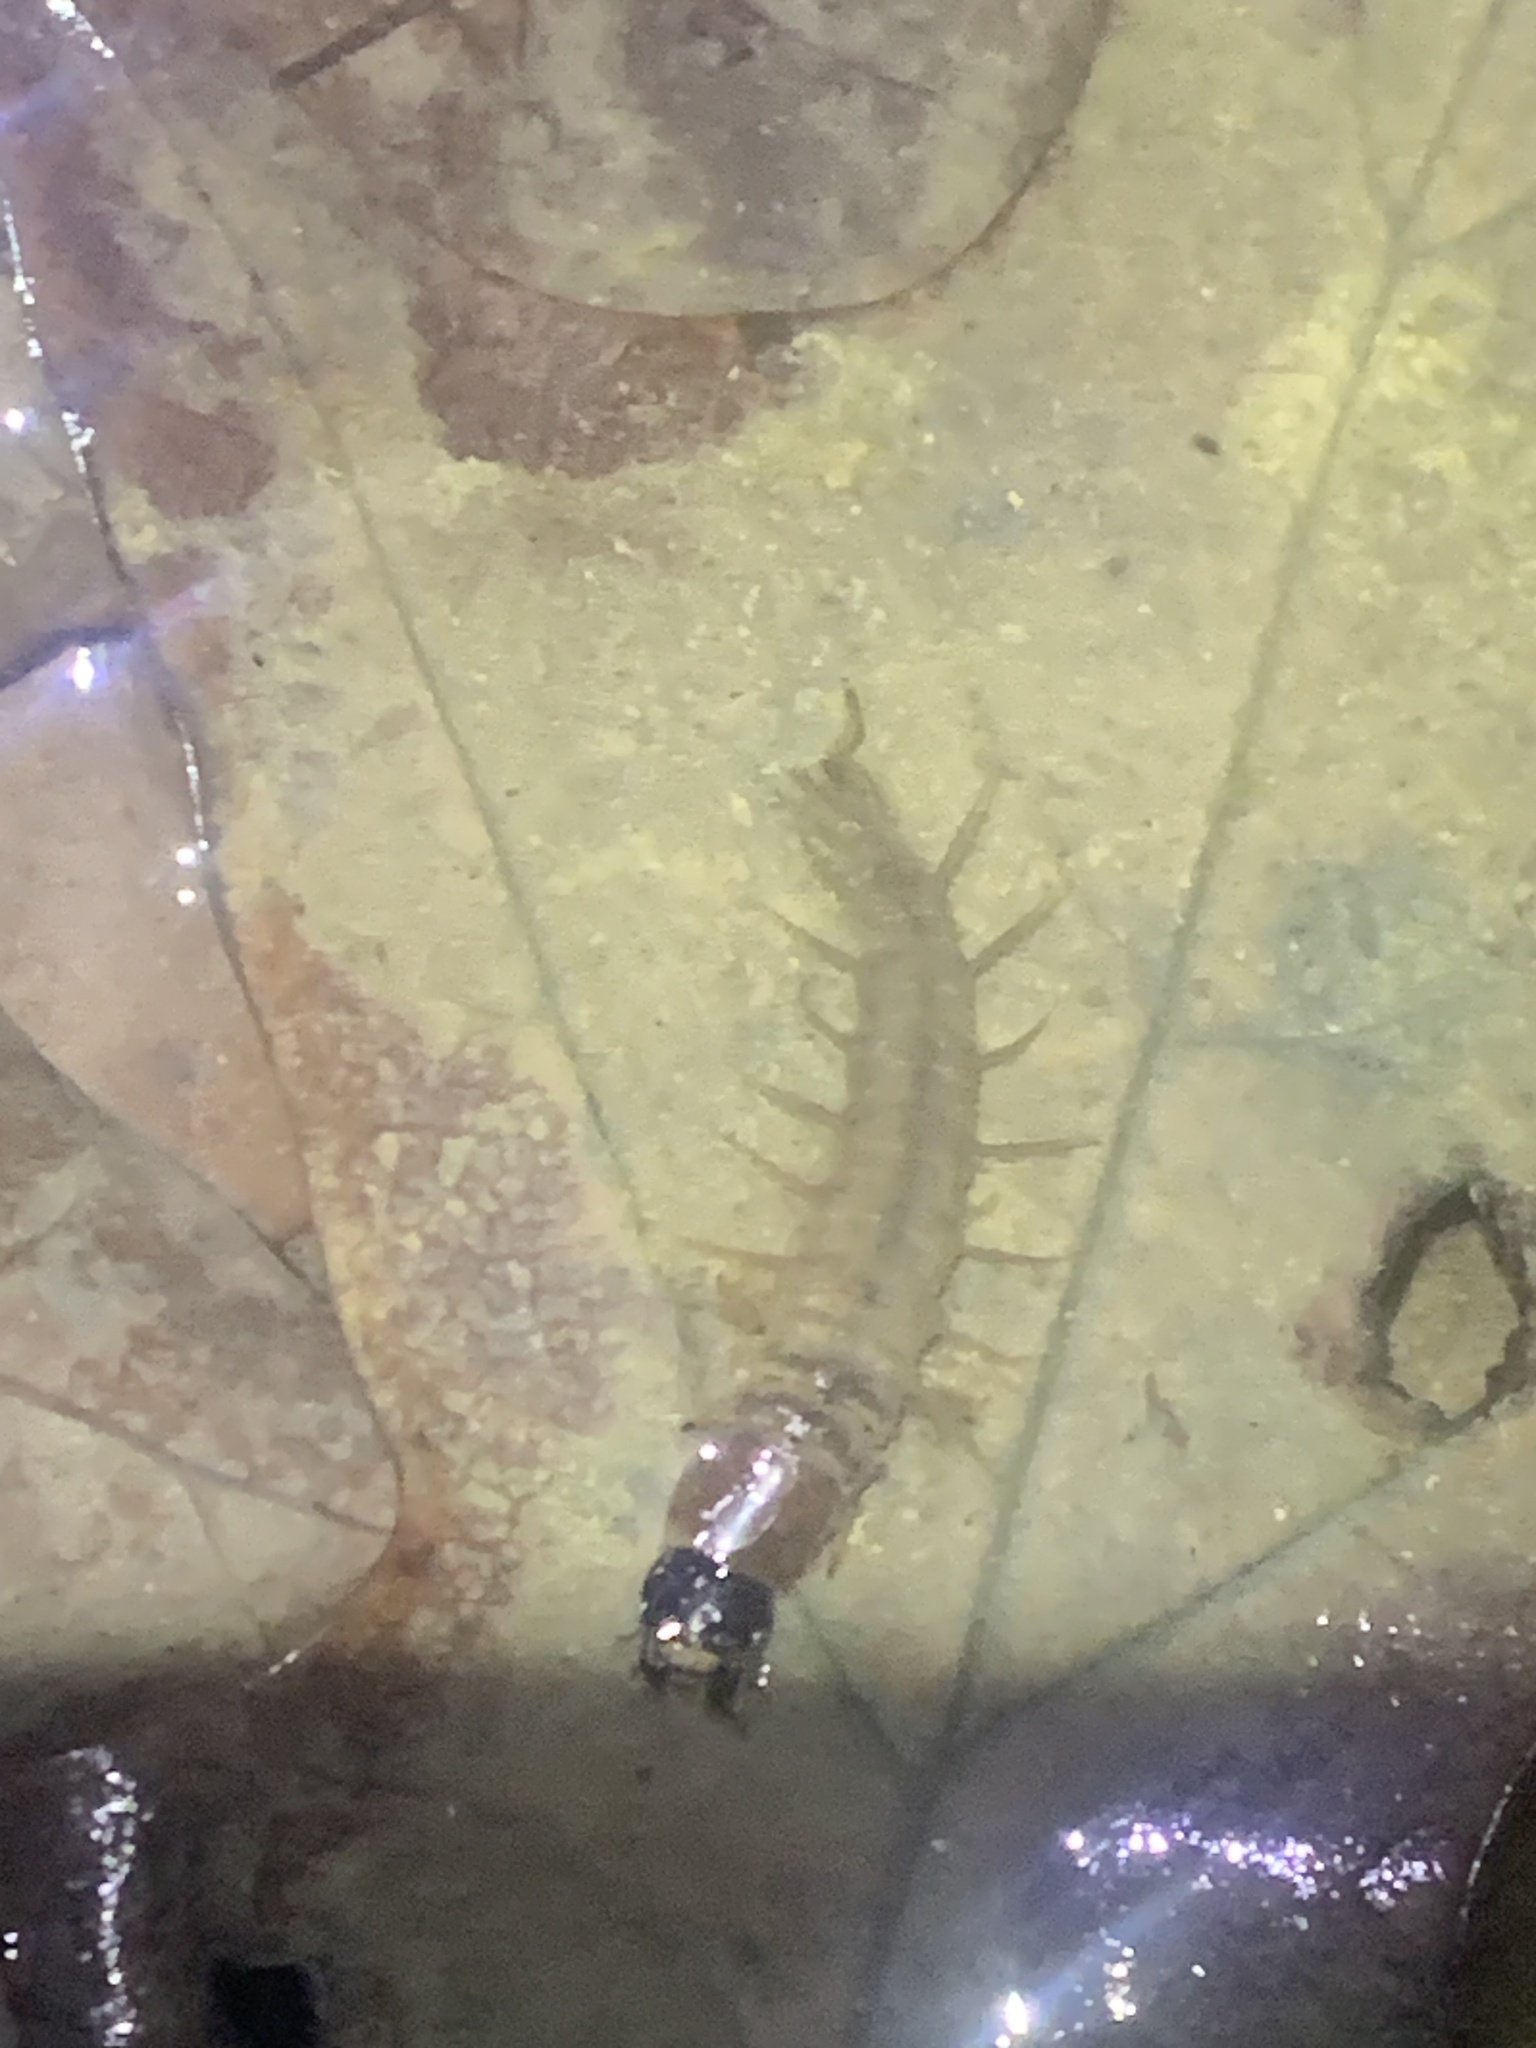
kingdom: Animalia
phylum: Arthropoda
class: Insecta
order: Megaloptera
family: Corydalidae
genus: Chauliodes
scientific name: Chauliodes rastricornis
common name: Spring fishfly
